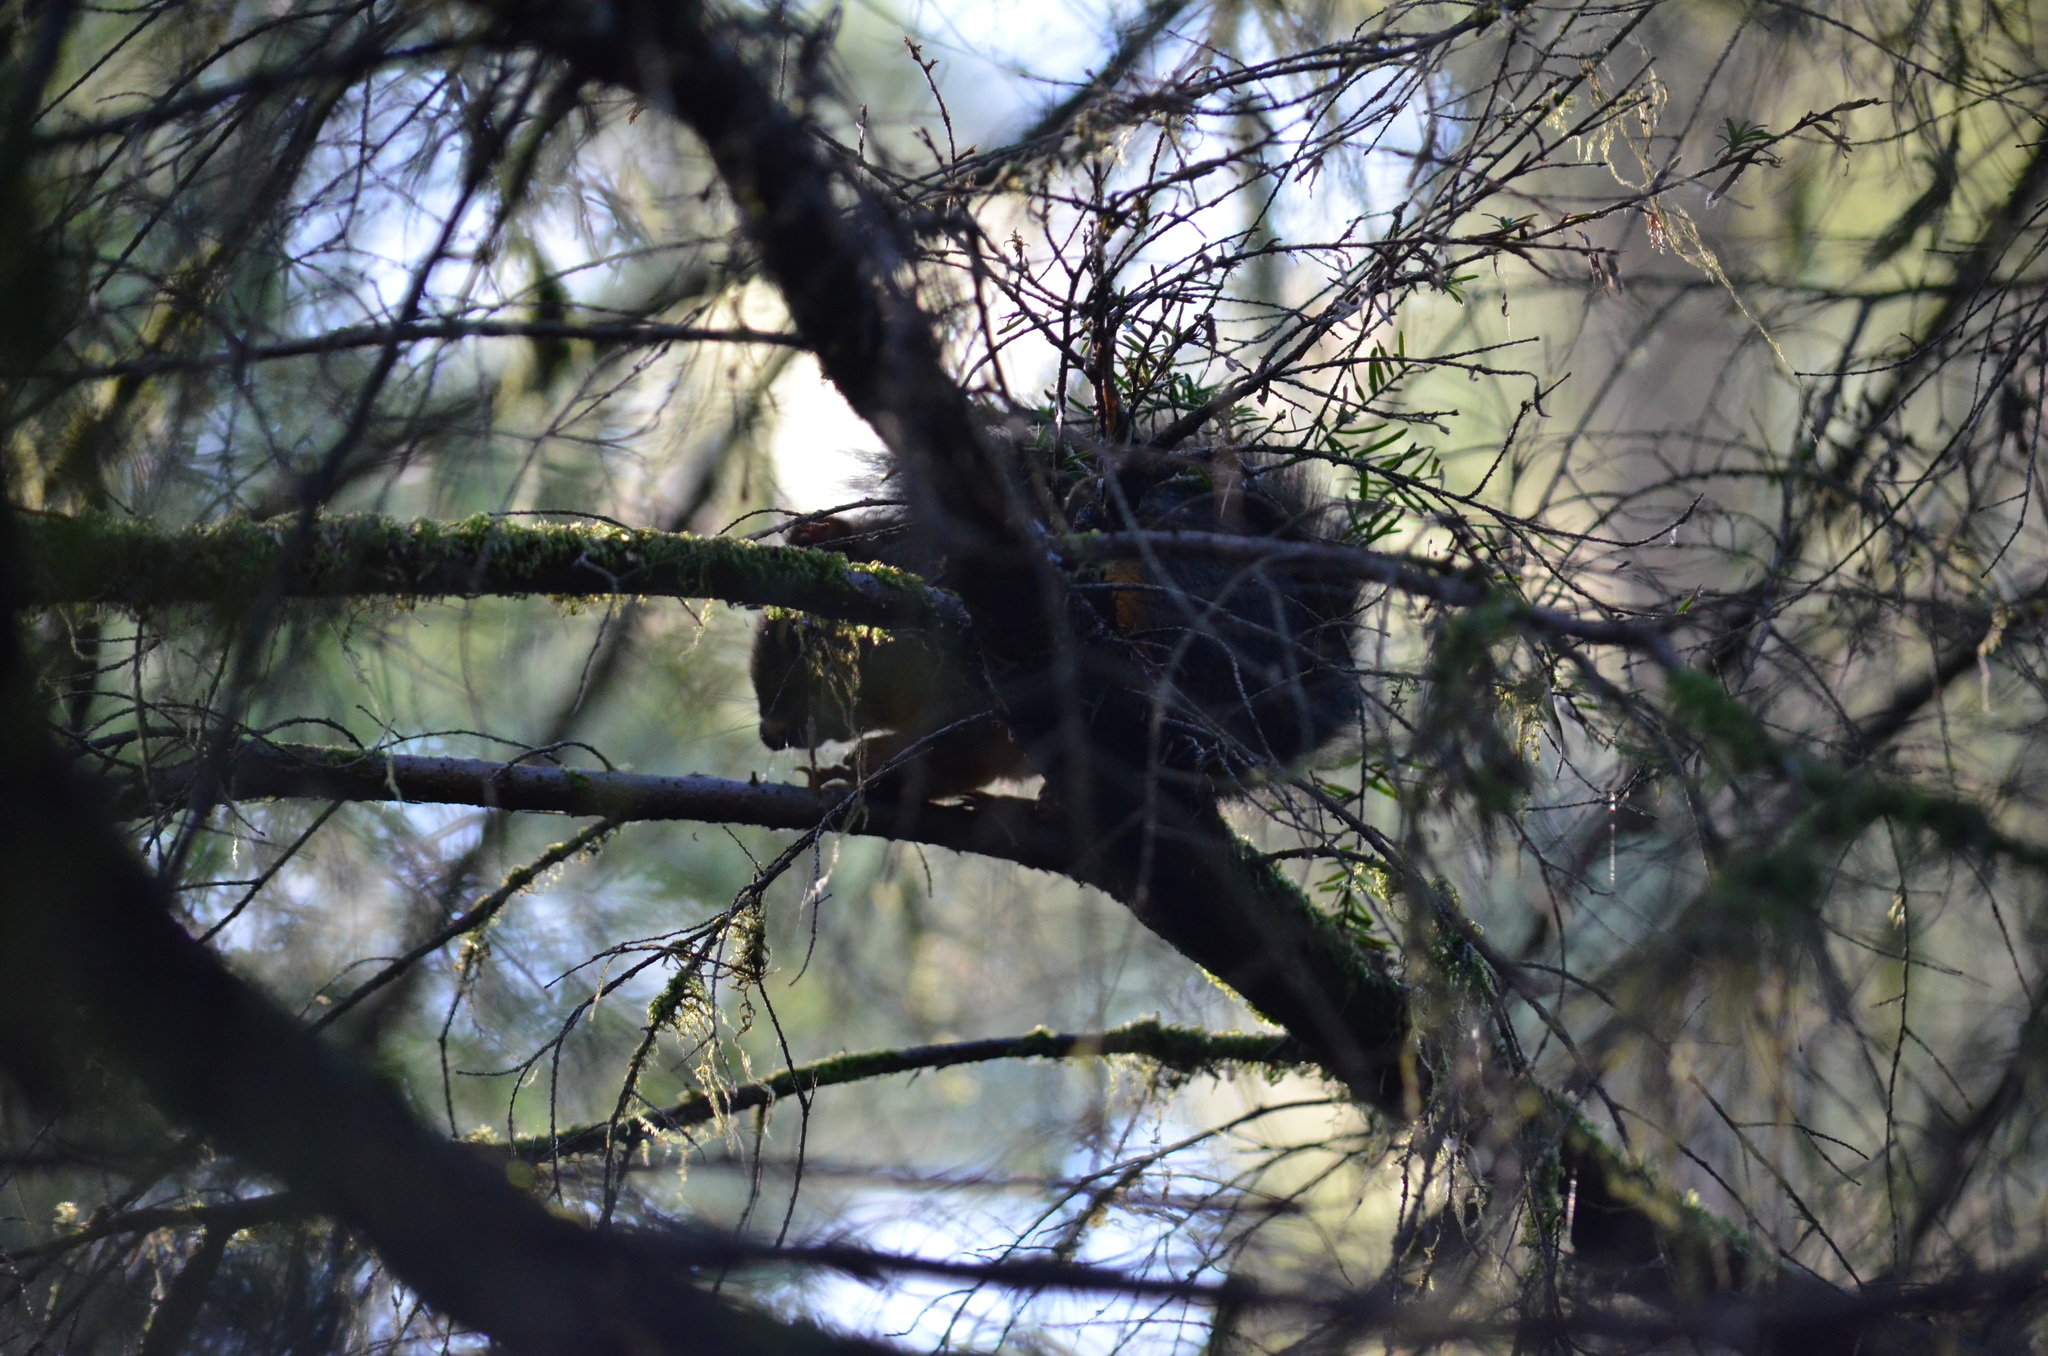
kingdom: Animalia
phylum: Chordata
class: Mammalia
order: Rodentia
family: Sciuridae
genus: Tamiasciurus
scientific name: Tamiasciurus douglasii
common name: Douglas's squirrel
